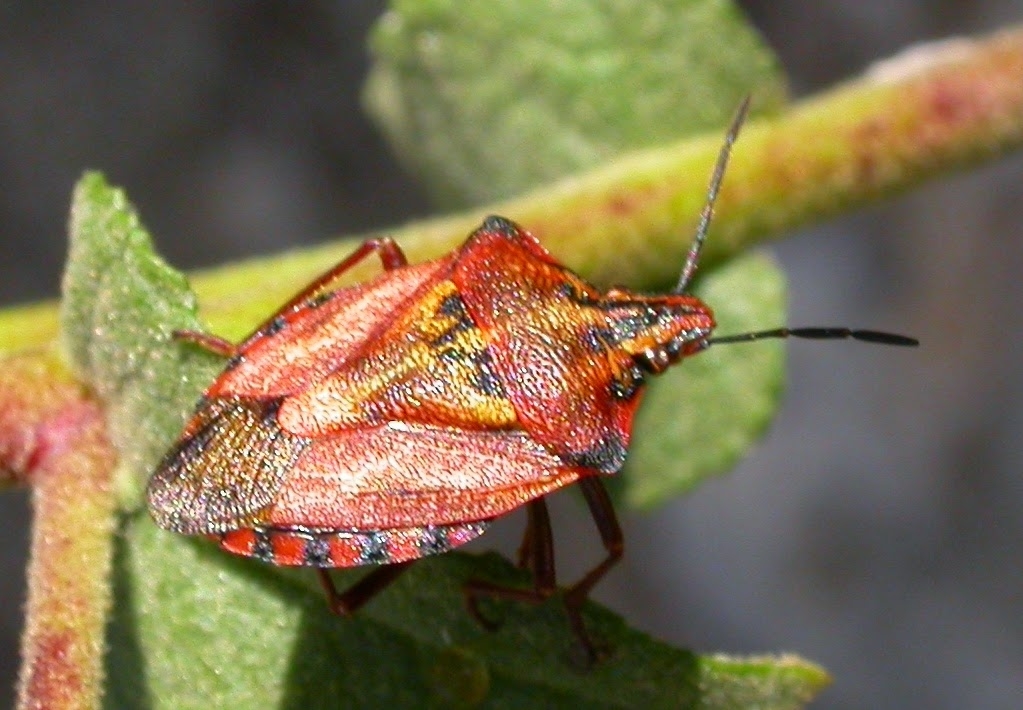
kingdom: Animalia
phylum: Arthropoda
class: Insecta
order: Hemiptera
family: Pentatomidae
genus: Carpocoris
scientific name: Carpocoris mediterraneus
